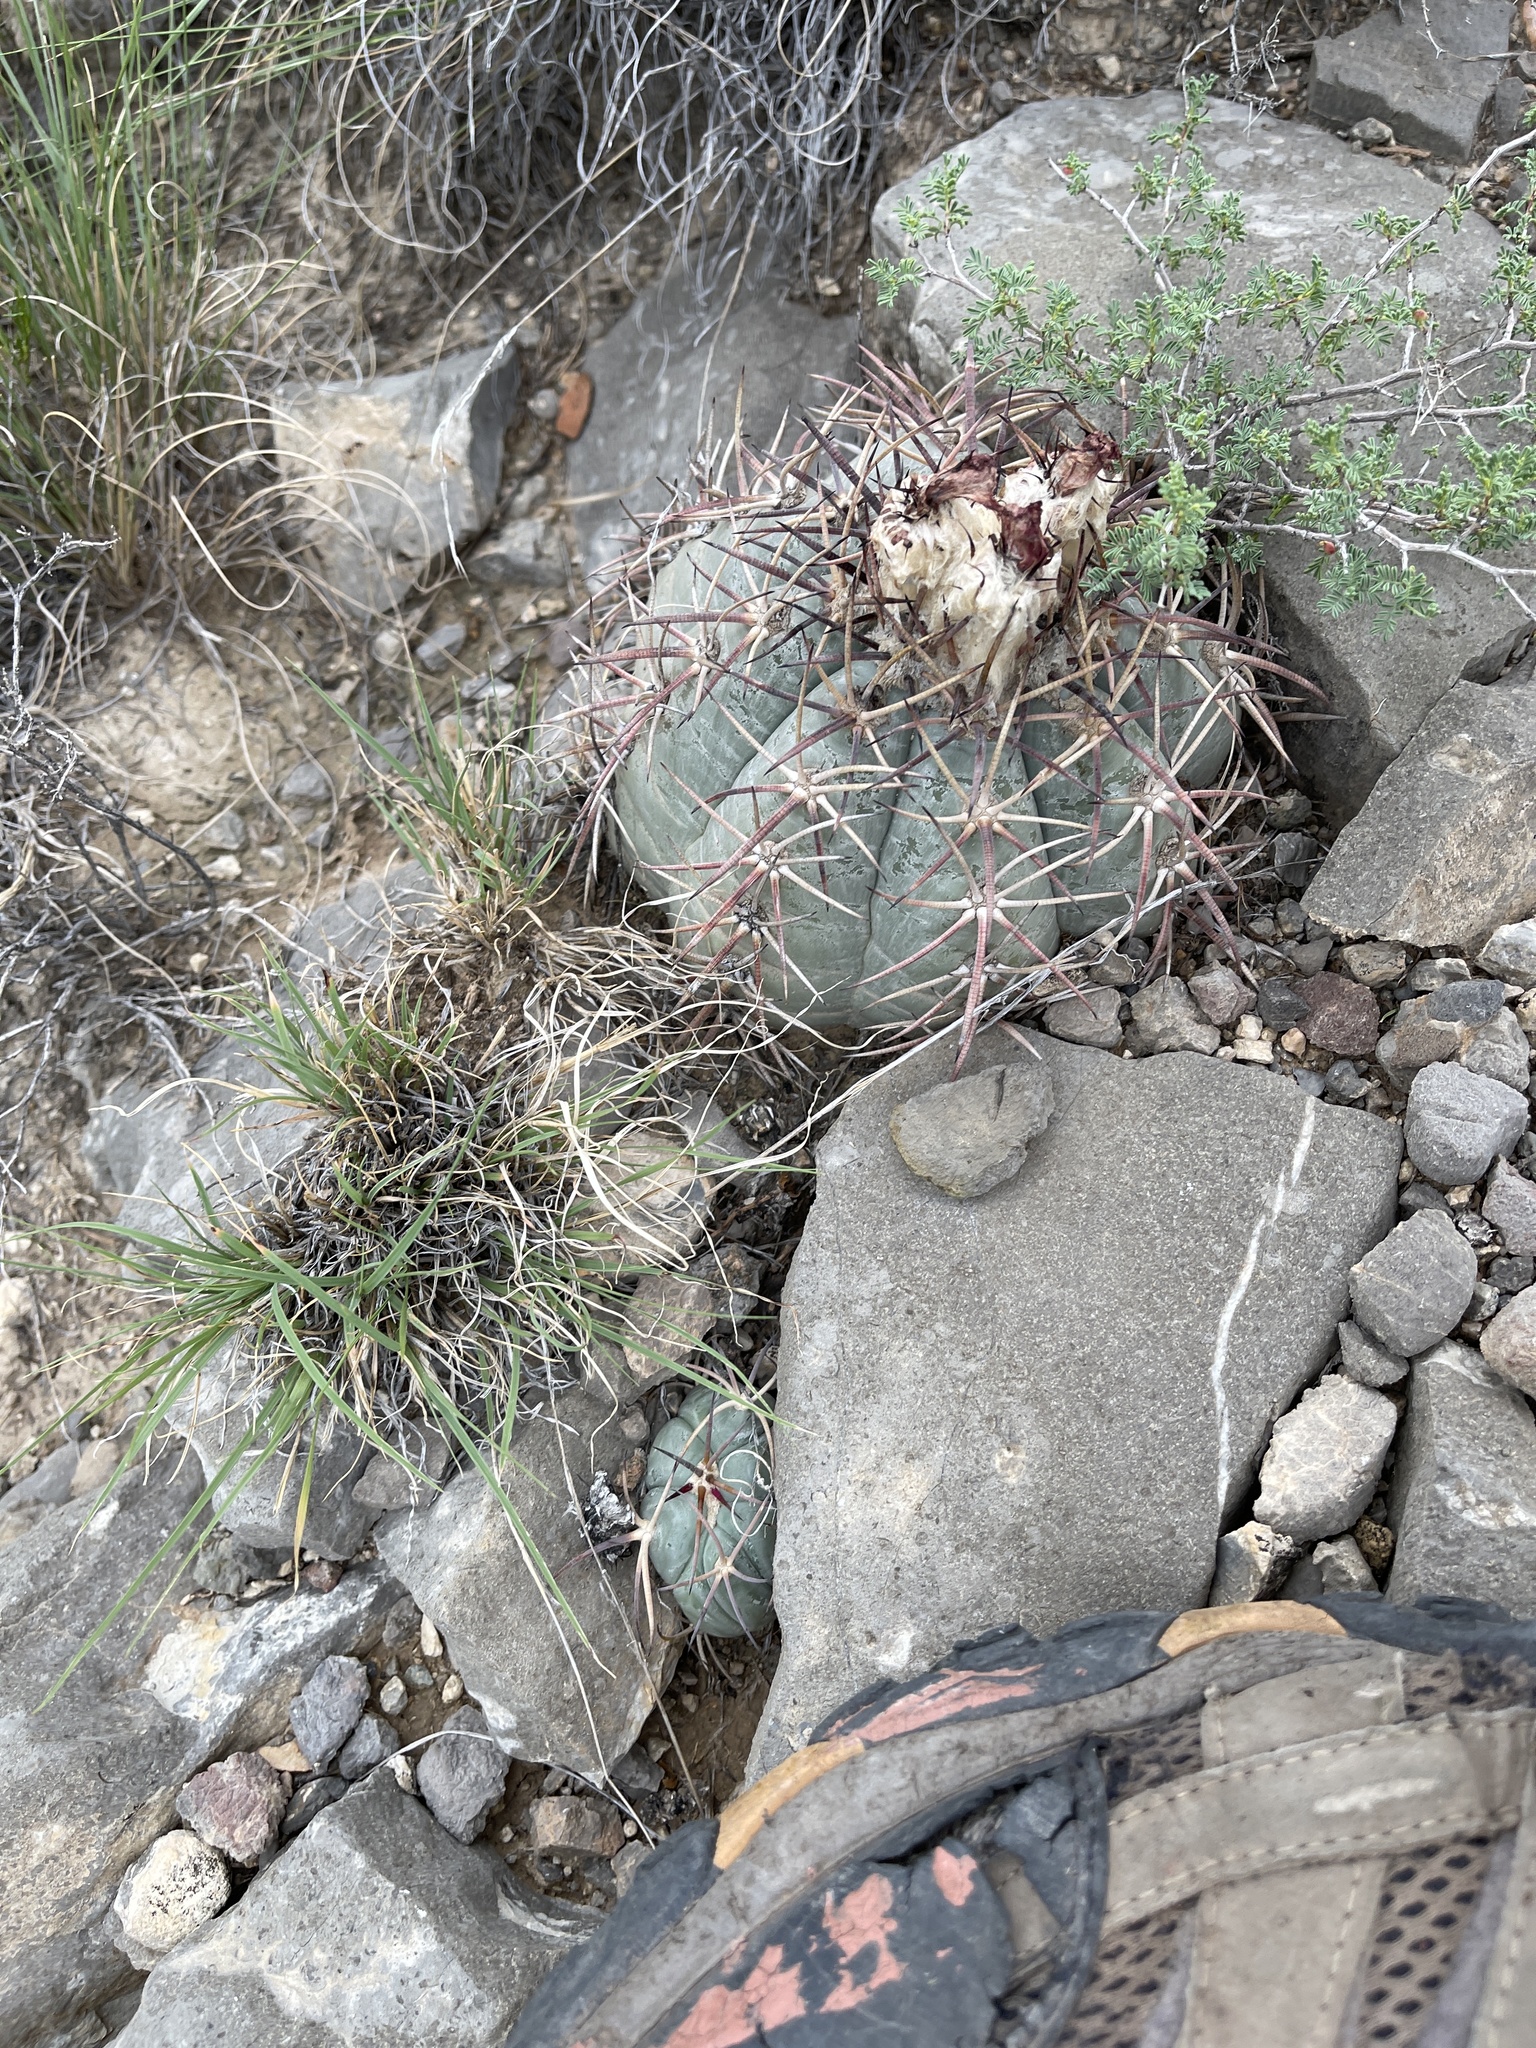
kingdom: Plantae
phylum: Tracheophyta
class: Magnoliopsida
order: Caryophyllales
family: Cactaceae
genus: Echinocactus
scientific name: Echinocactus horizonthalonius
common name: Devilshead
